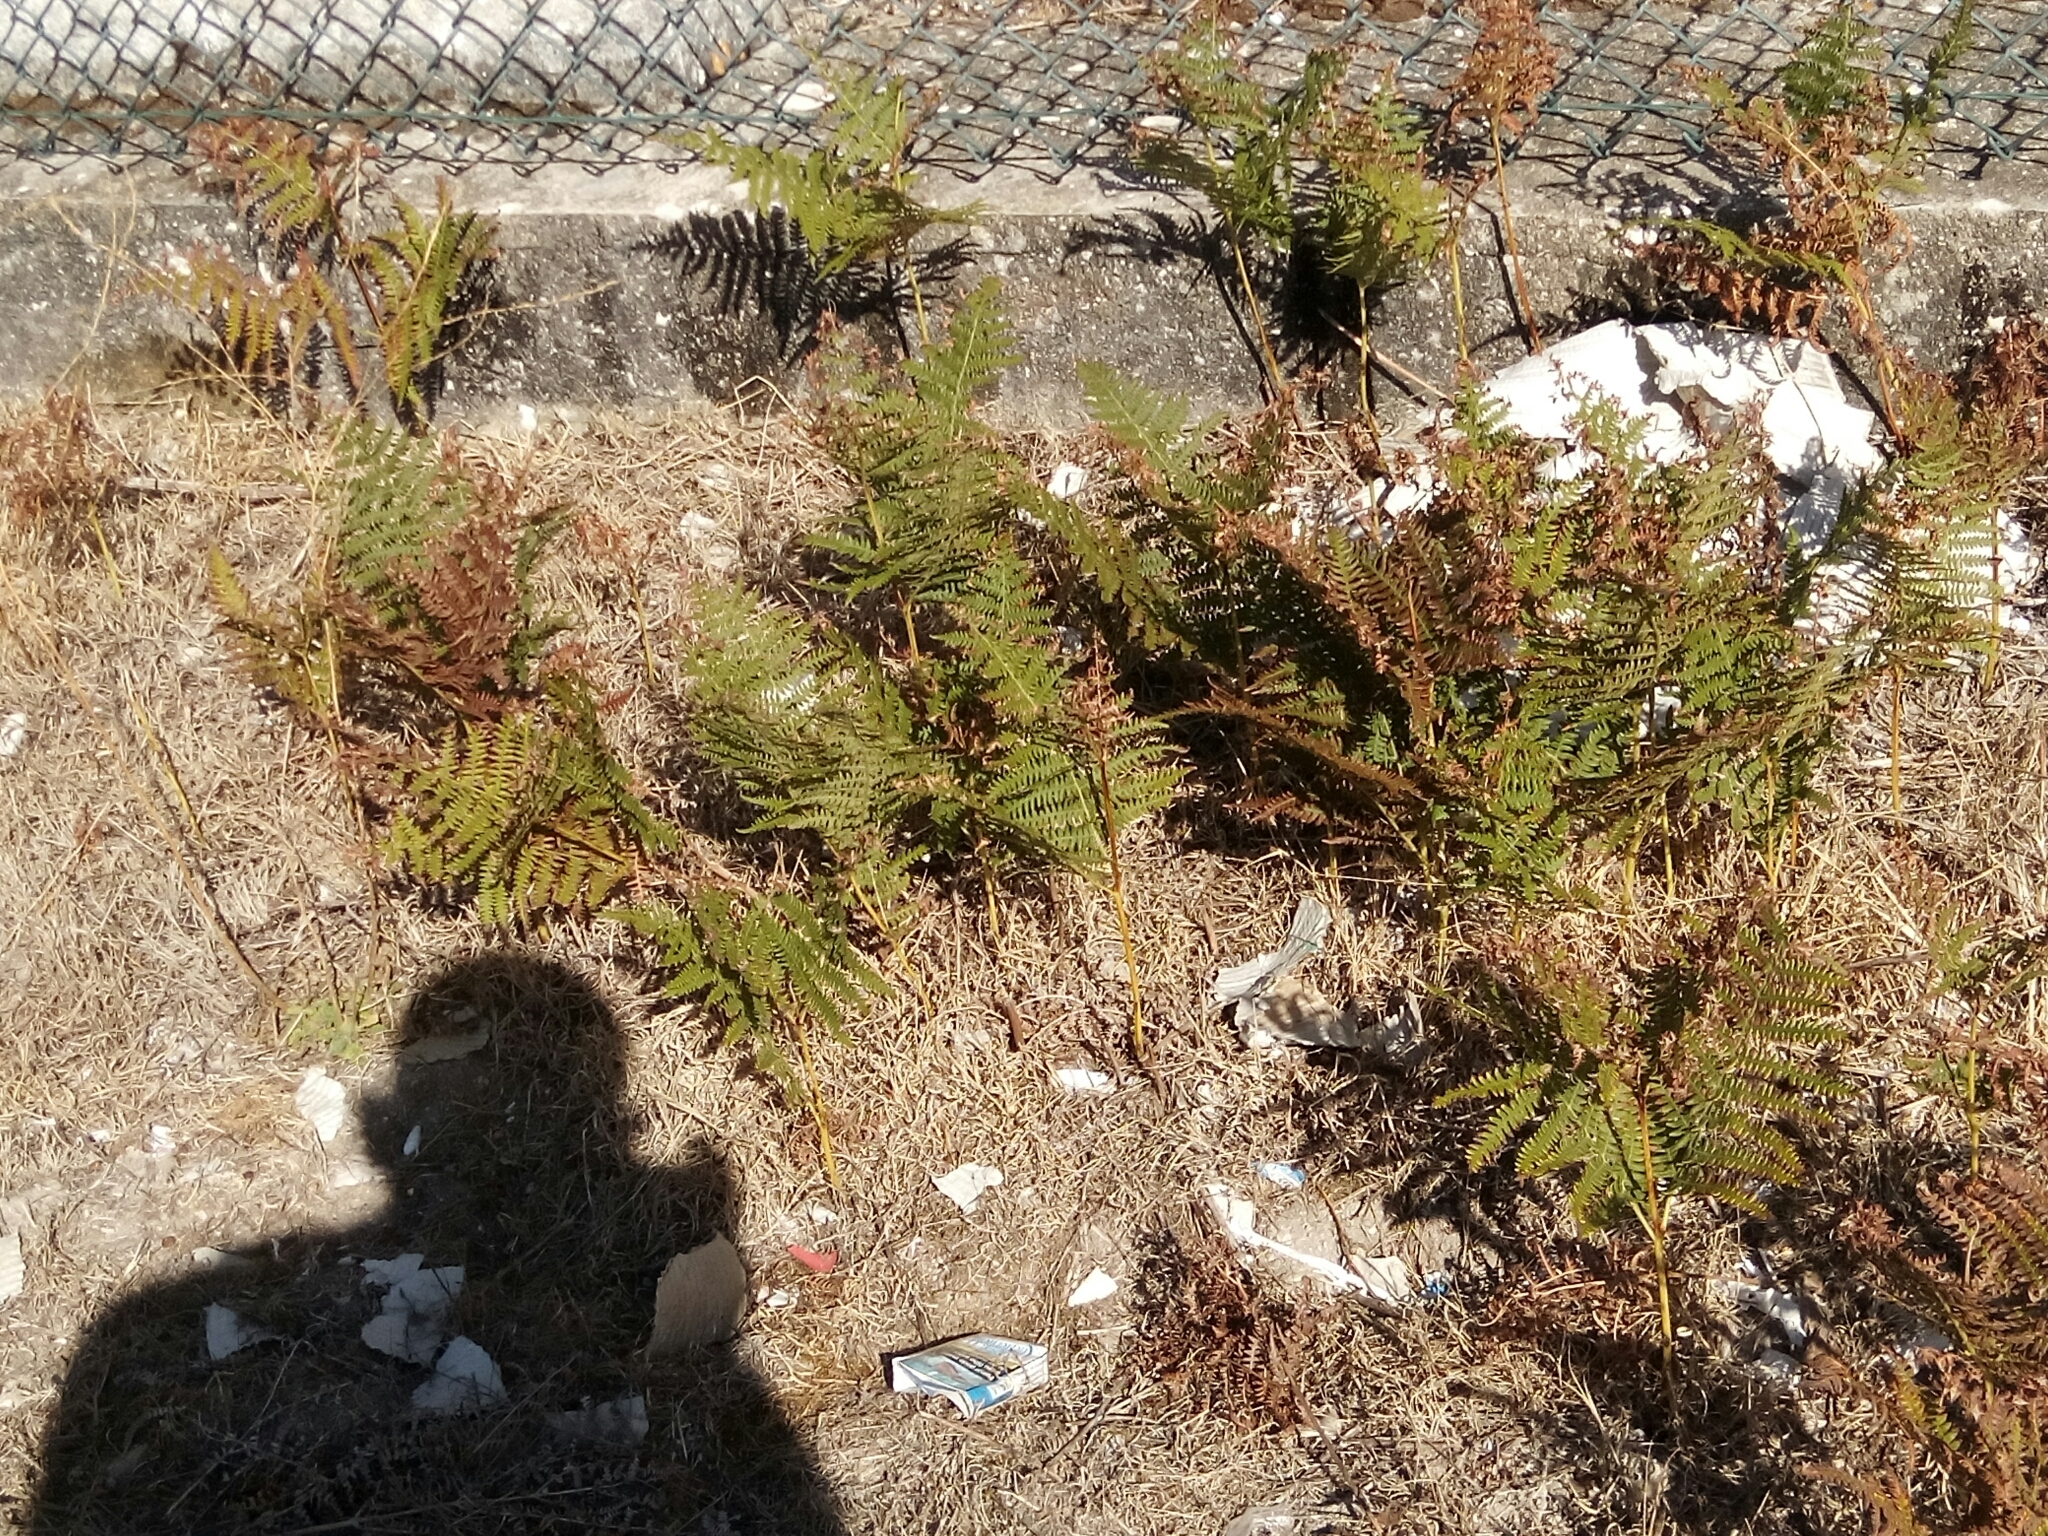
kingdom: Plantae
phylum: Tracheophyta
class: Polypodiopsida
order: Polypodiales
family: Dennstaedtiaceae
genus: Pteridium
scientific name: Pteridium aquilinum
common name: Bracken
